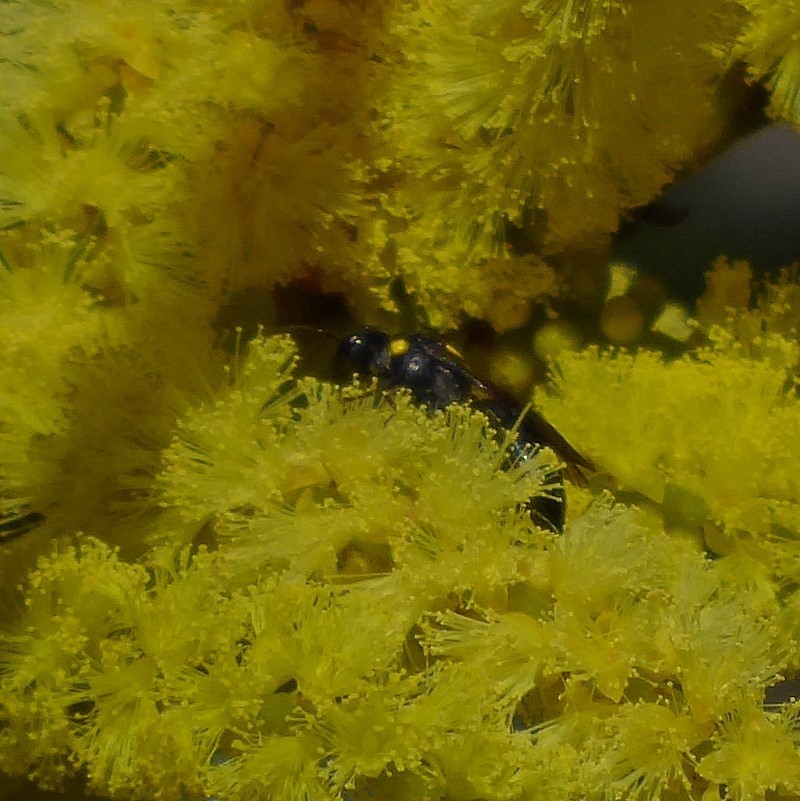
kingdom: Animalia
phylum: Arthropoda
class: Insecta
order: Hymenoptera
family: Colletidae
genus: Amphylaeus
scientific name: Amphylaeus obscuriceps
